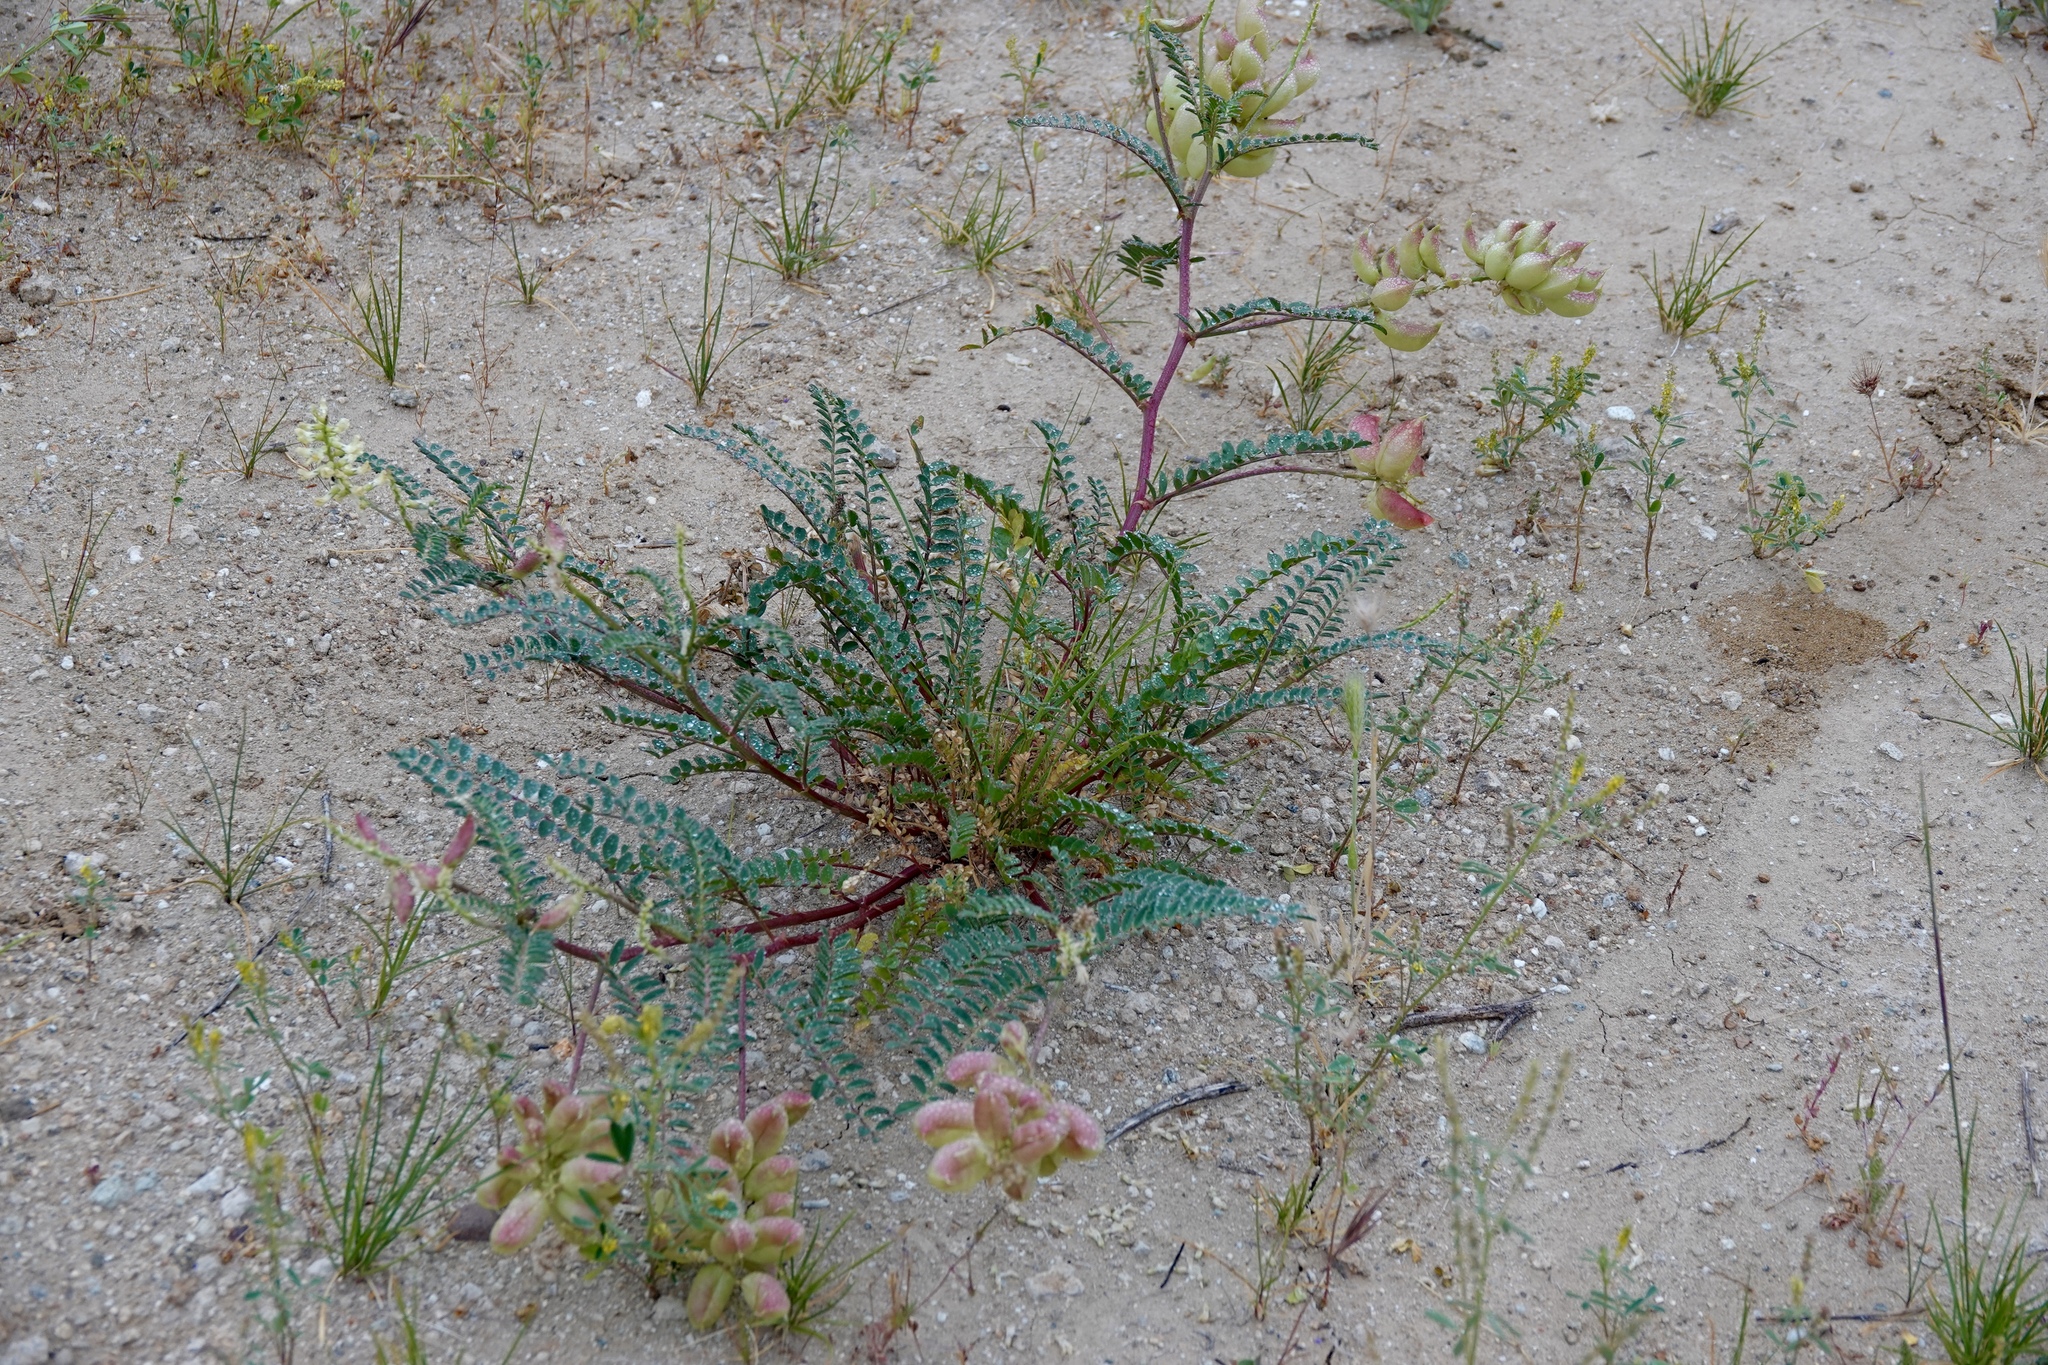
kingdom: Plantae
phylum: Tracheophyta
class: Magnoliopsida
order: Fabales
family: Fabaceae
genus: Astragalus
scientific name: Astragalus pomonensis
